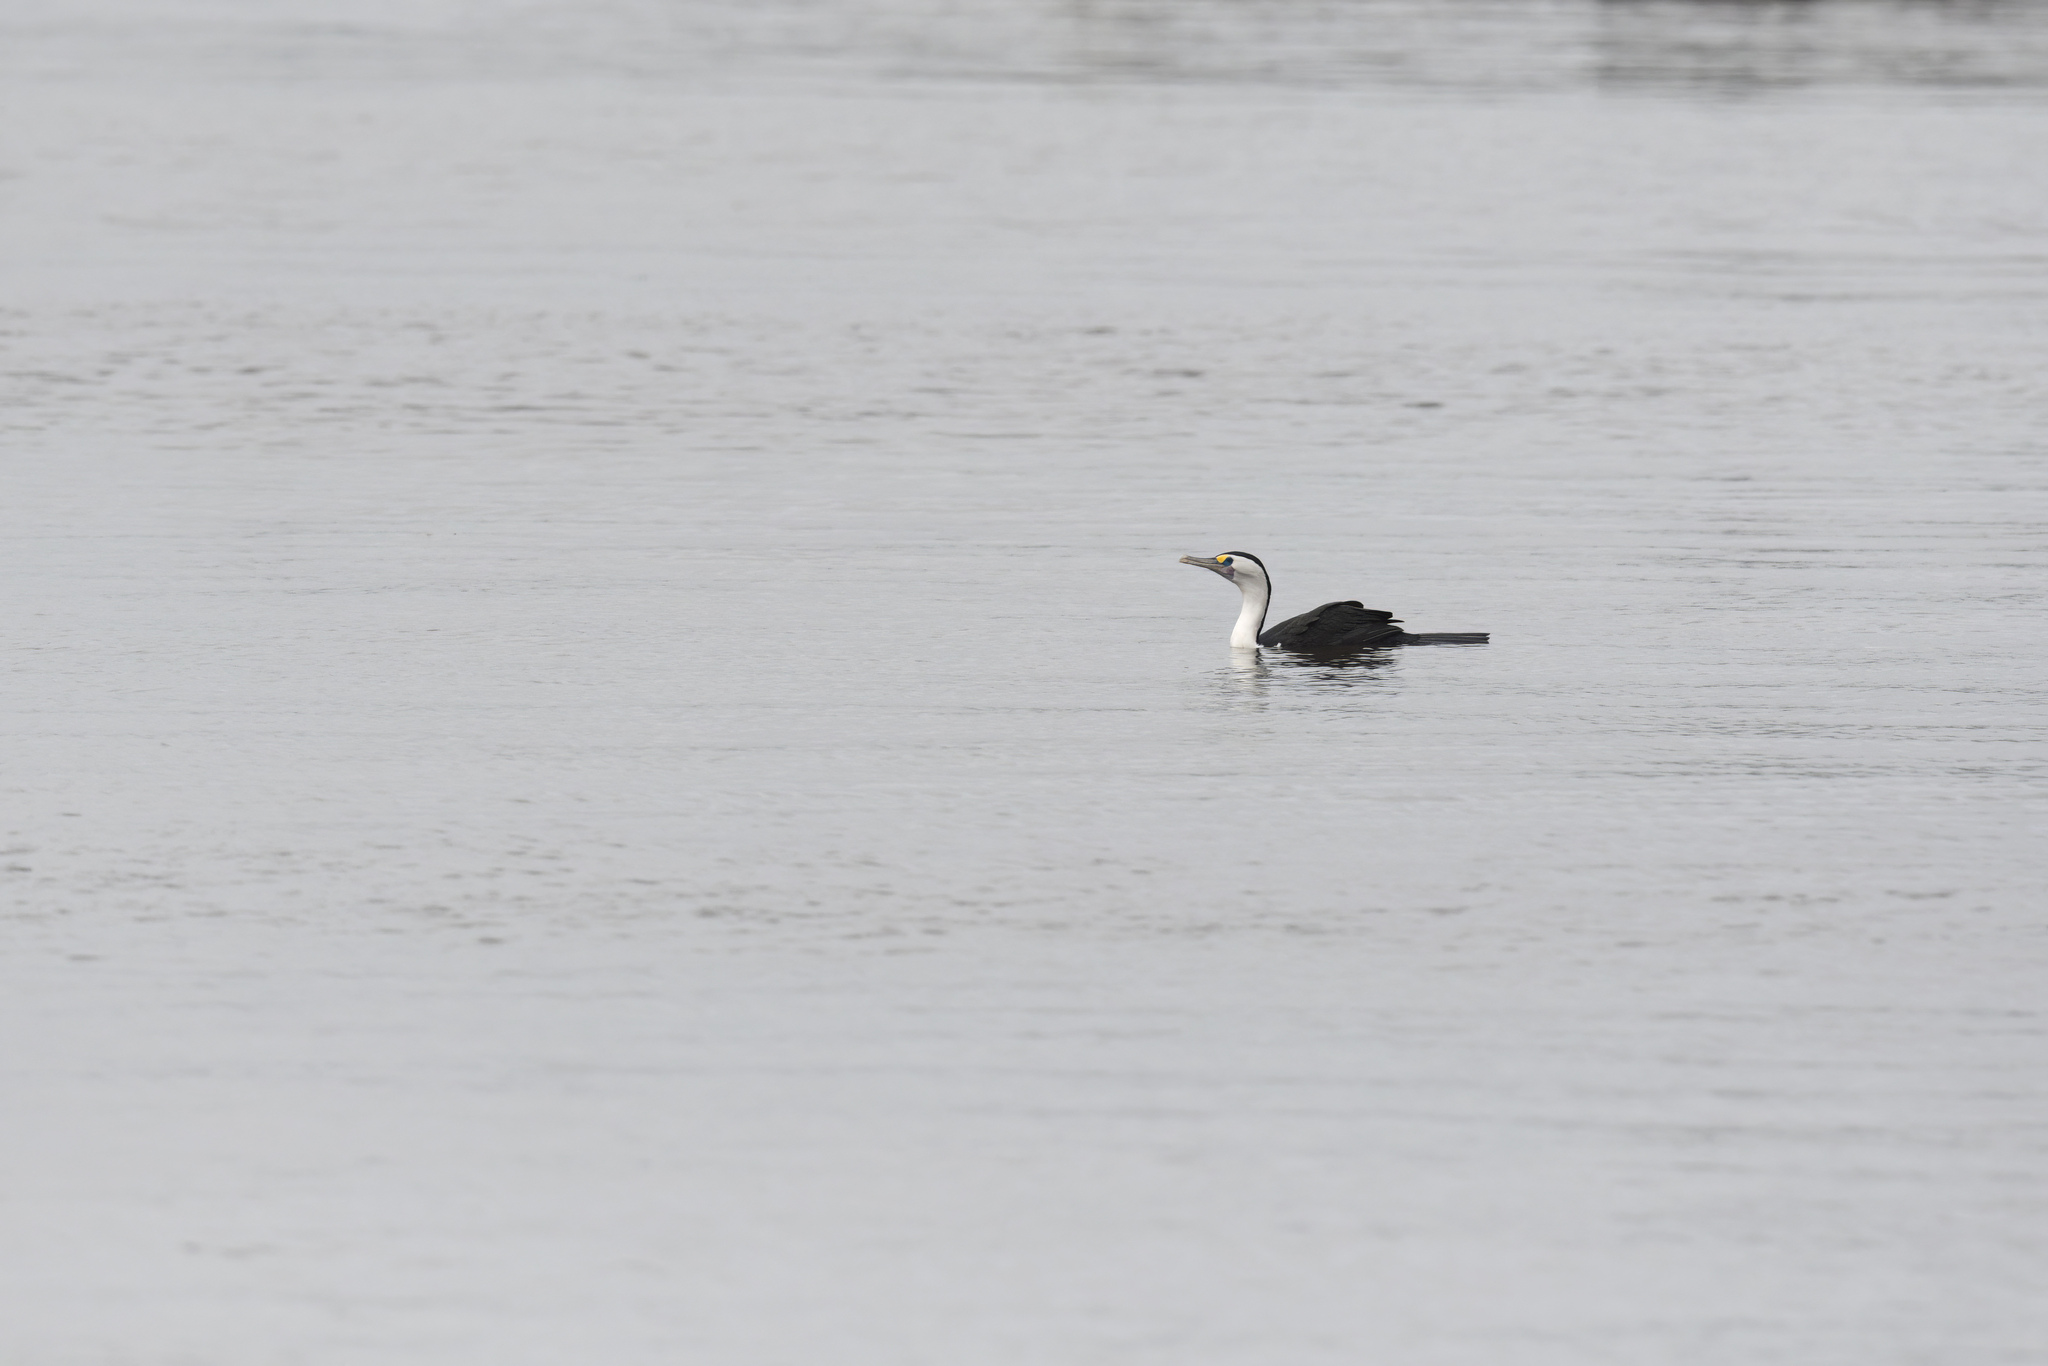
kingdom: Animalia
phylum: Chordata
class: Aves
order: Suliformes
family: Phalacrocoracidae
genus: Phalacrocorax
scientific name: Phalacrocorax varius
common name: Pied cormorant
